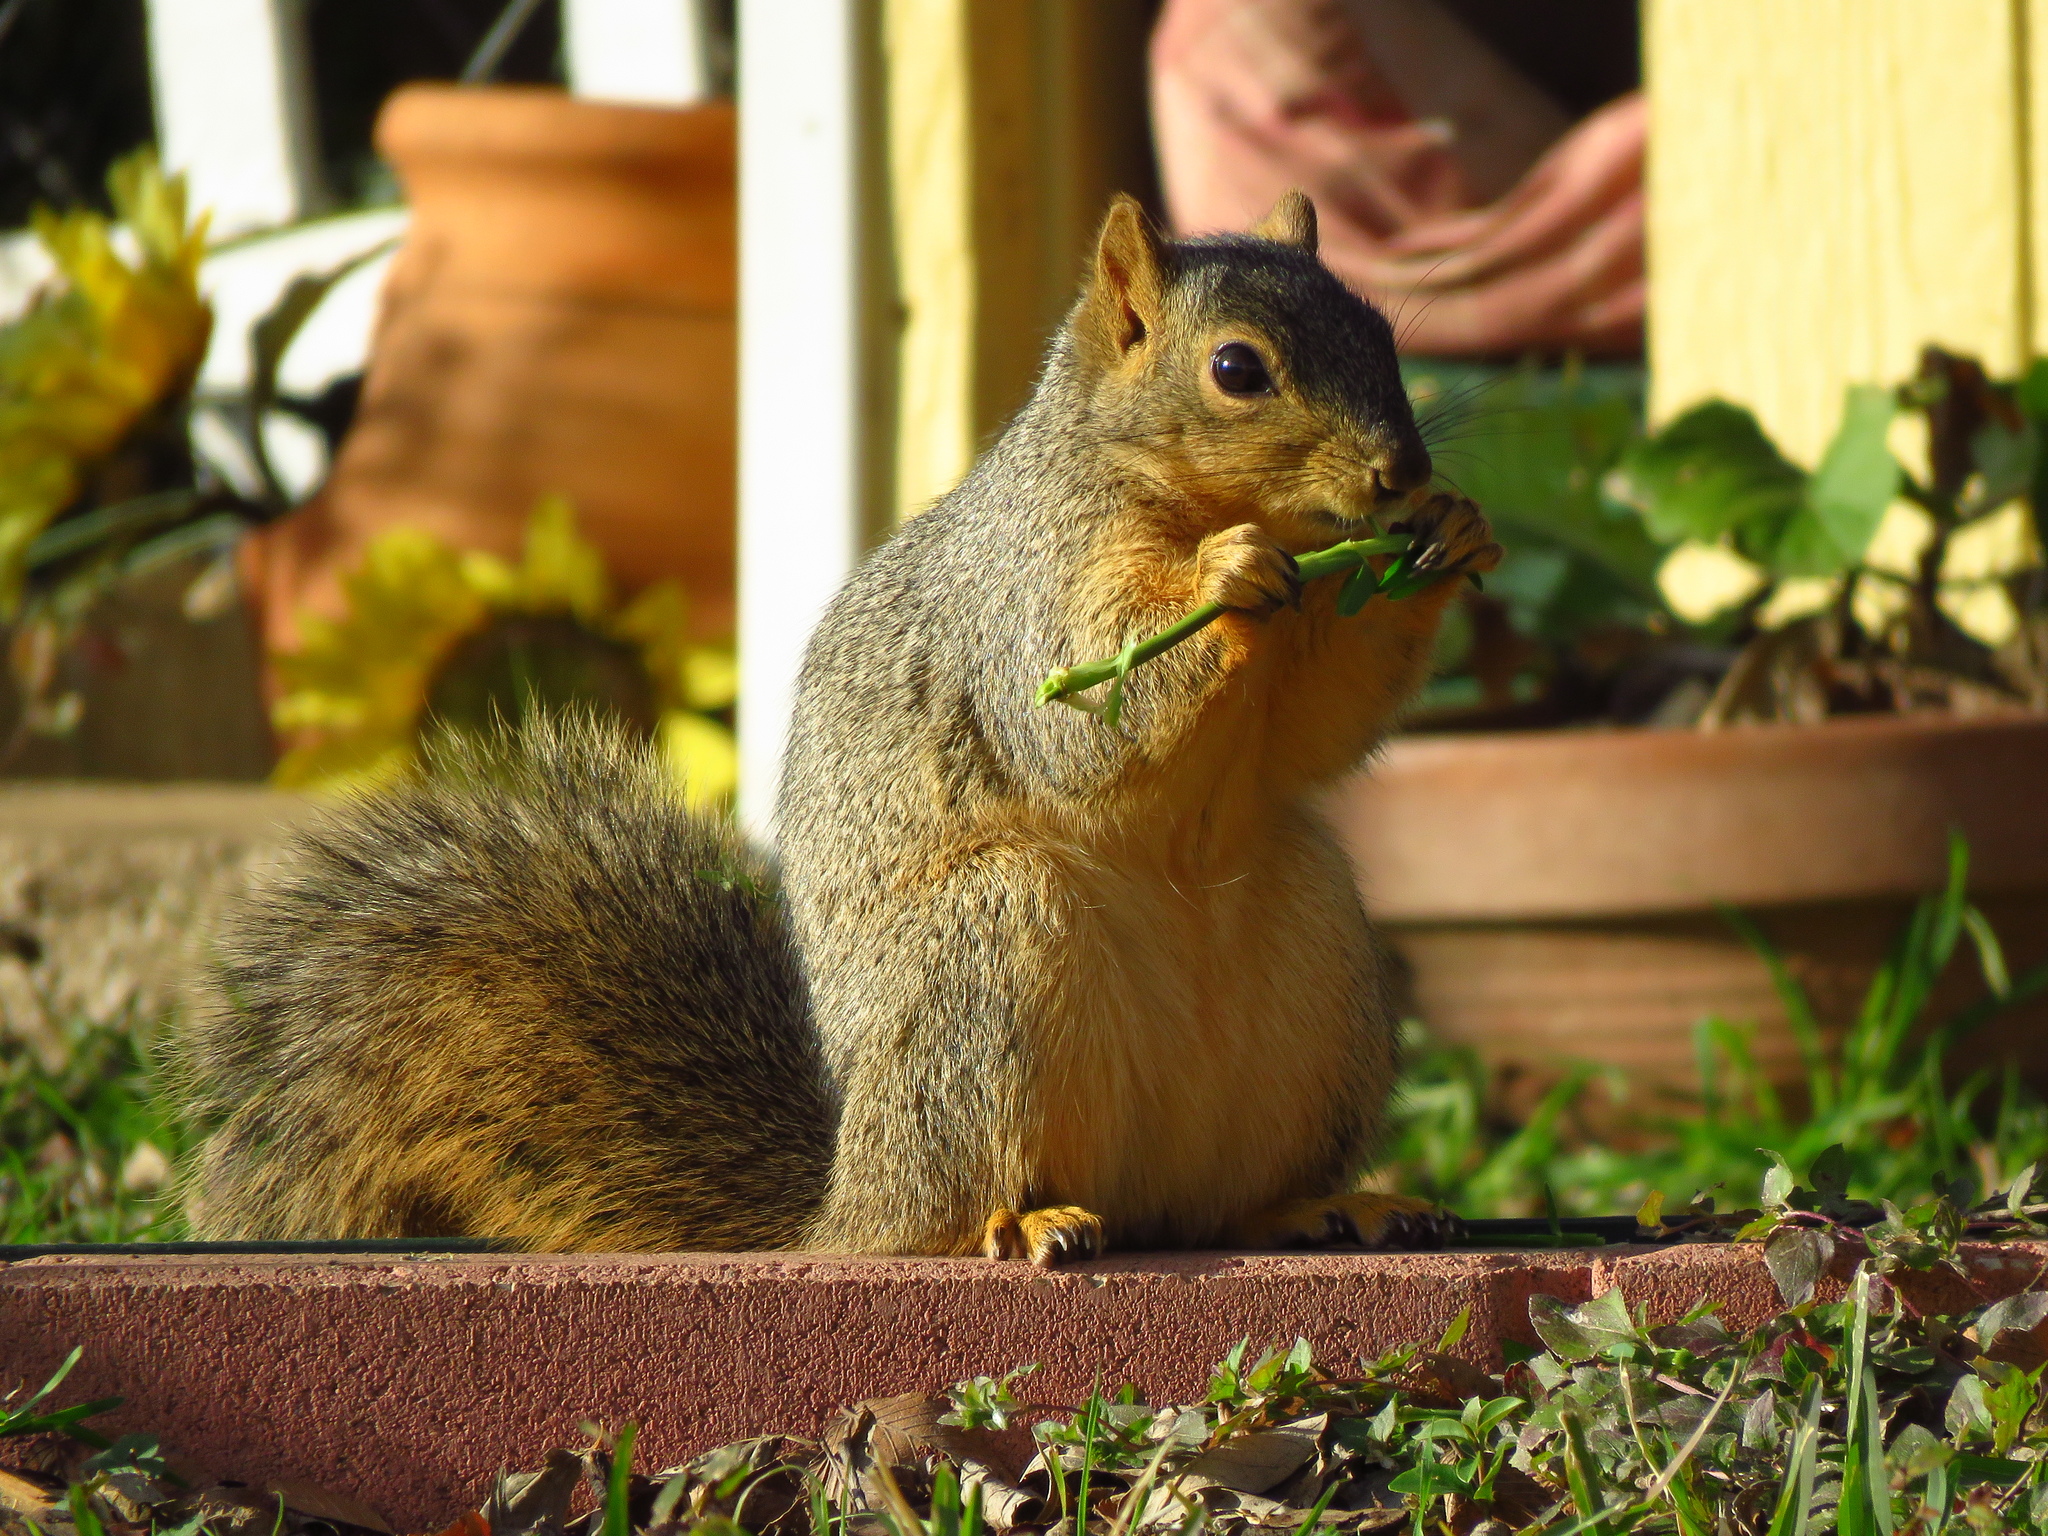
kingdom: Animalia
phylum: Chordata
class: Mammalia
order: Rodentia
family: Sciuridae
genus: Sciurus
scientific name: Sciurus niger
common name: Fox squirrel
